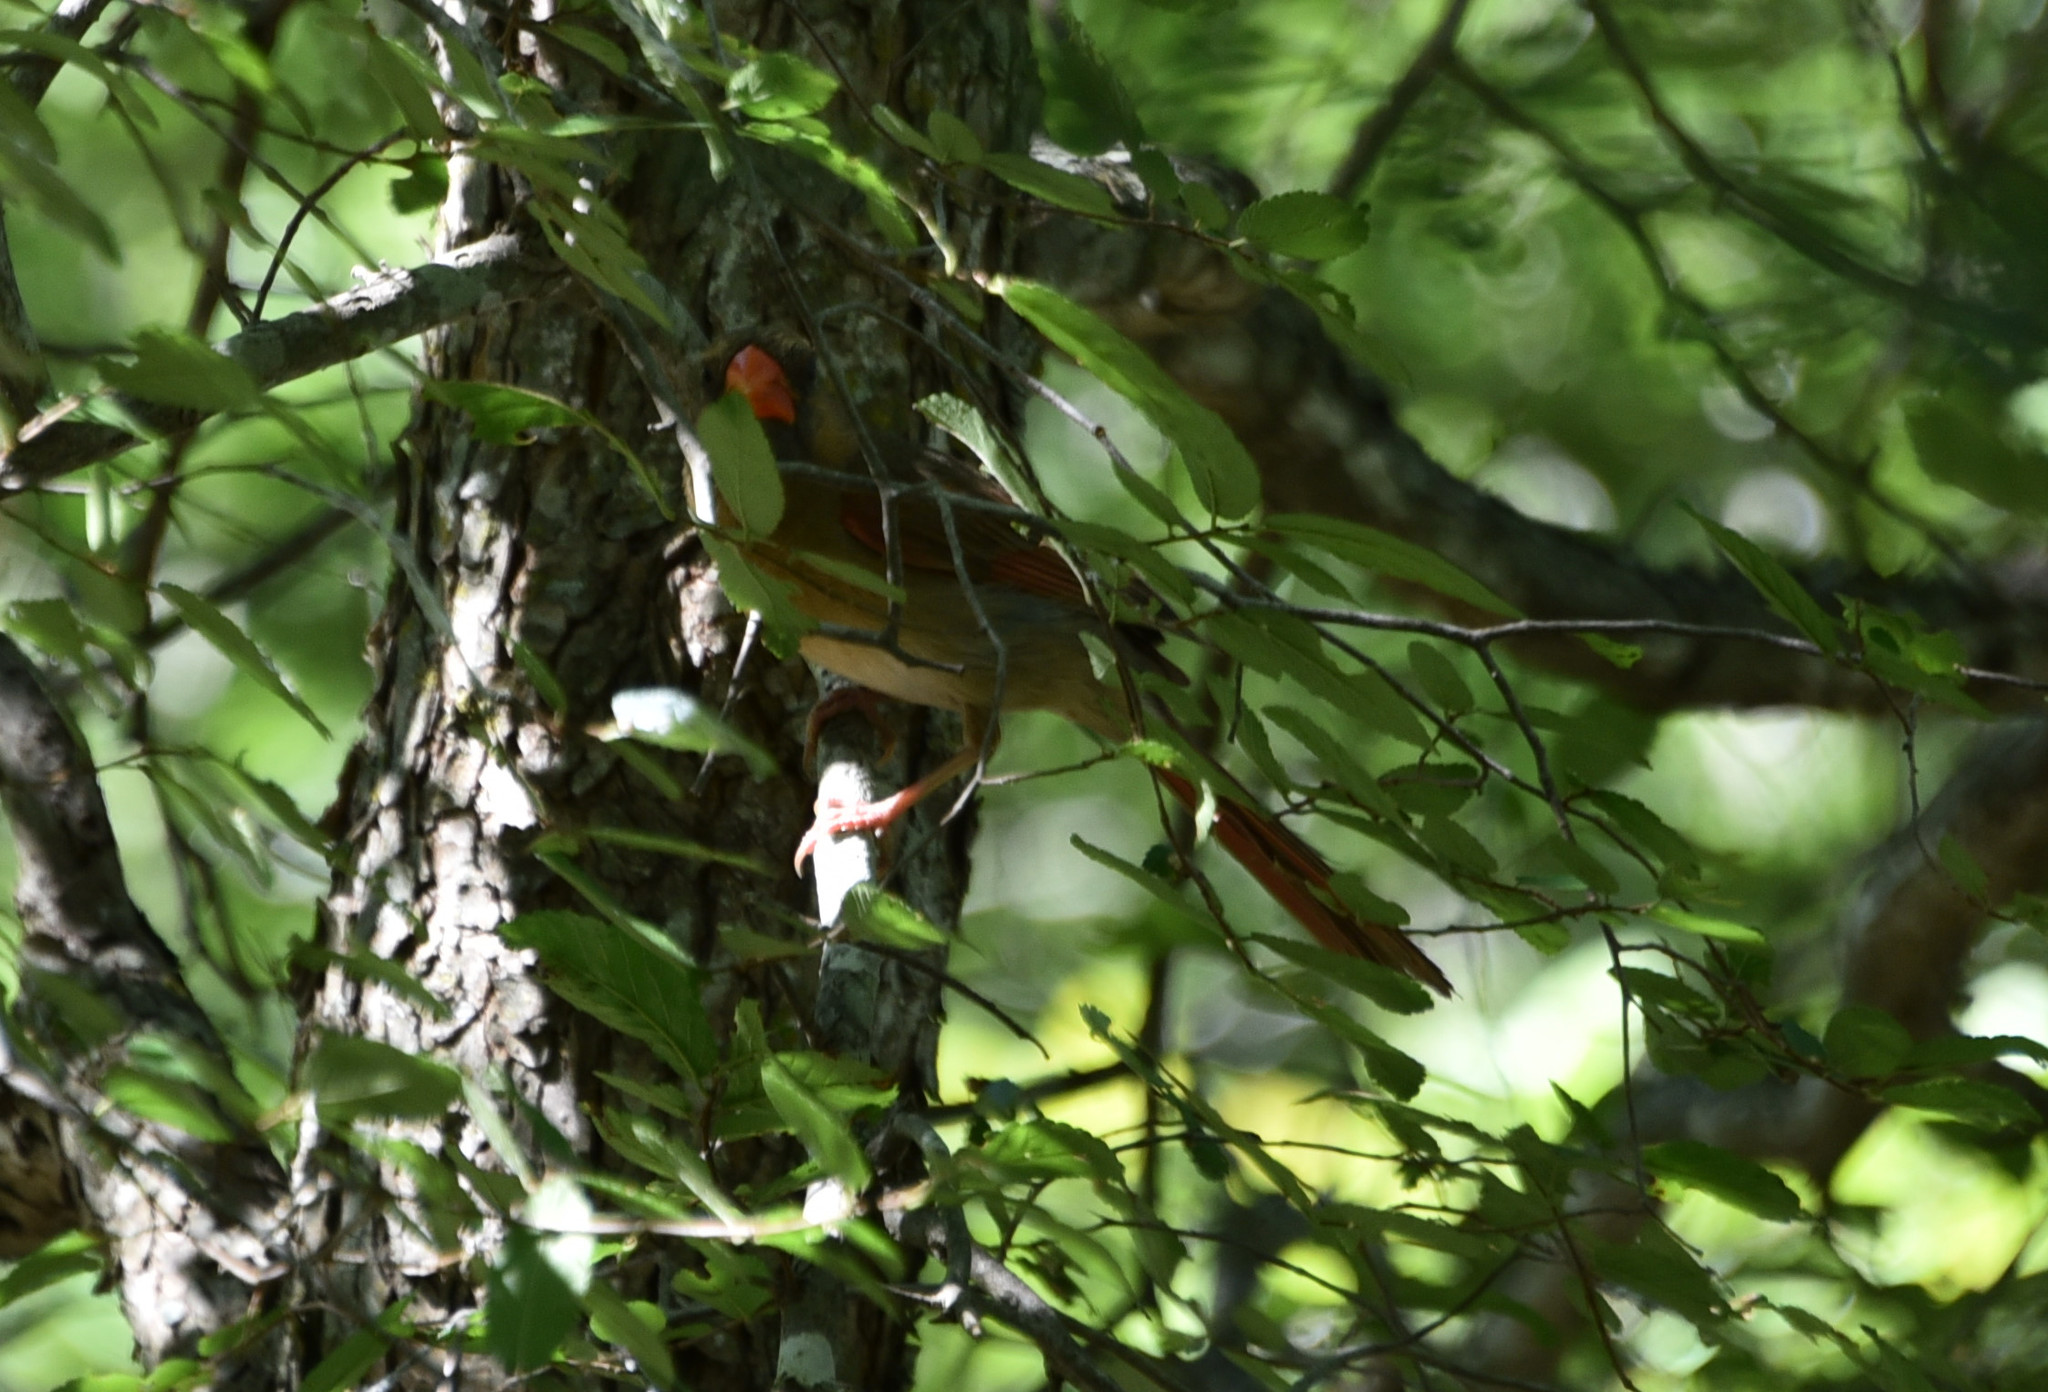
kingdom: Animalia
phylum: Chordata
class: Aves
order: Passeriformes
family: Cardinalidae
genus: Cardinalis
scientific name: Cardinalis cardinalis
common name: Northern cardinal
